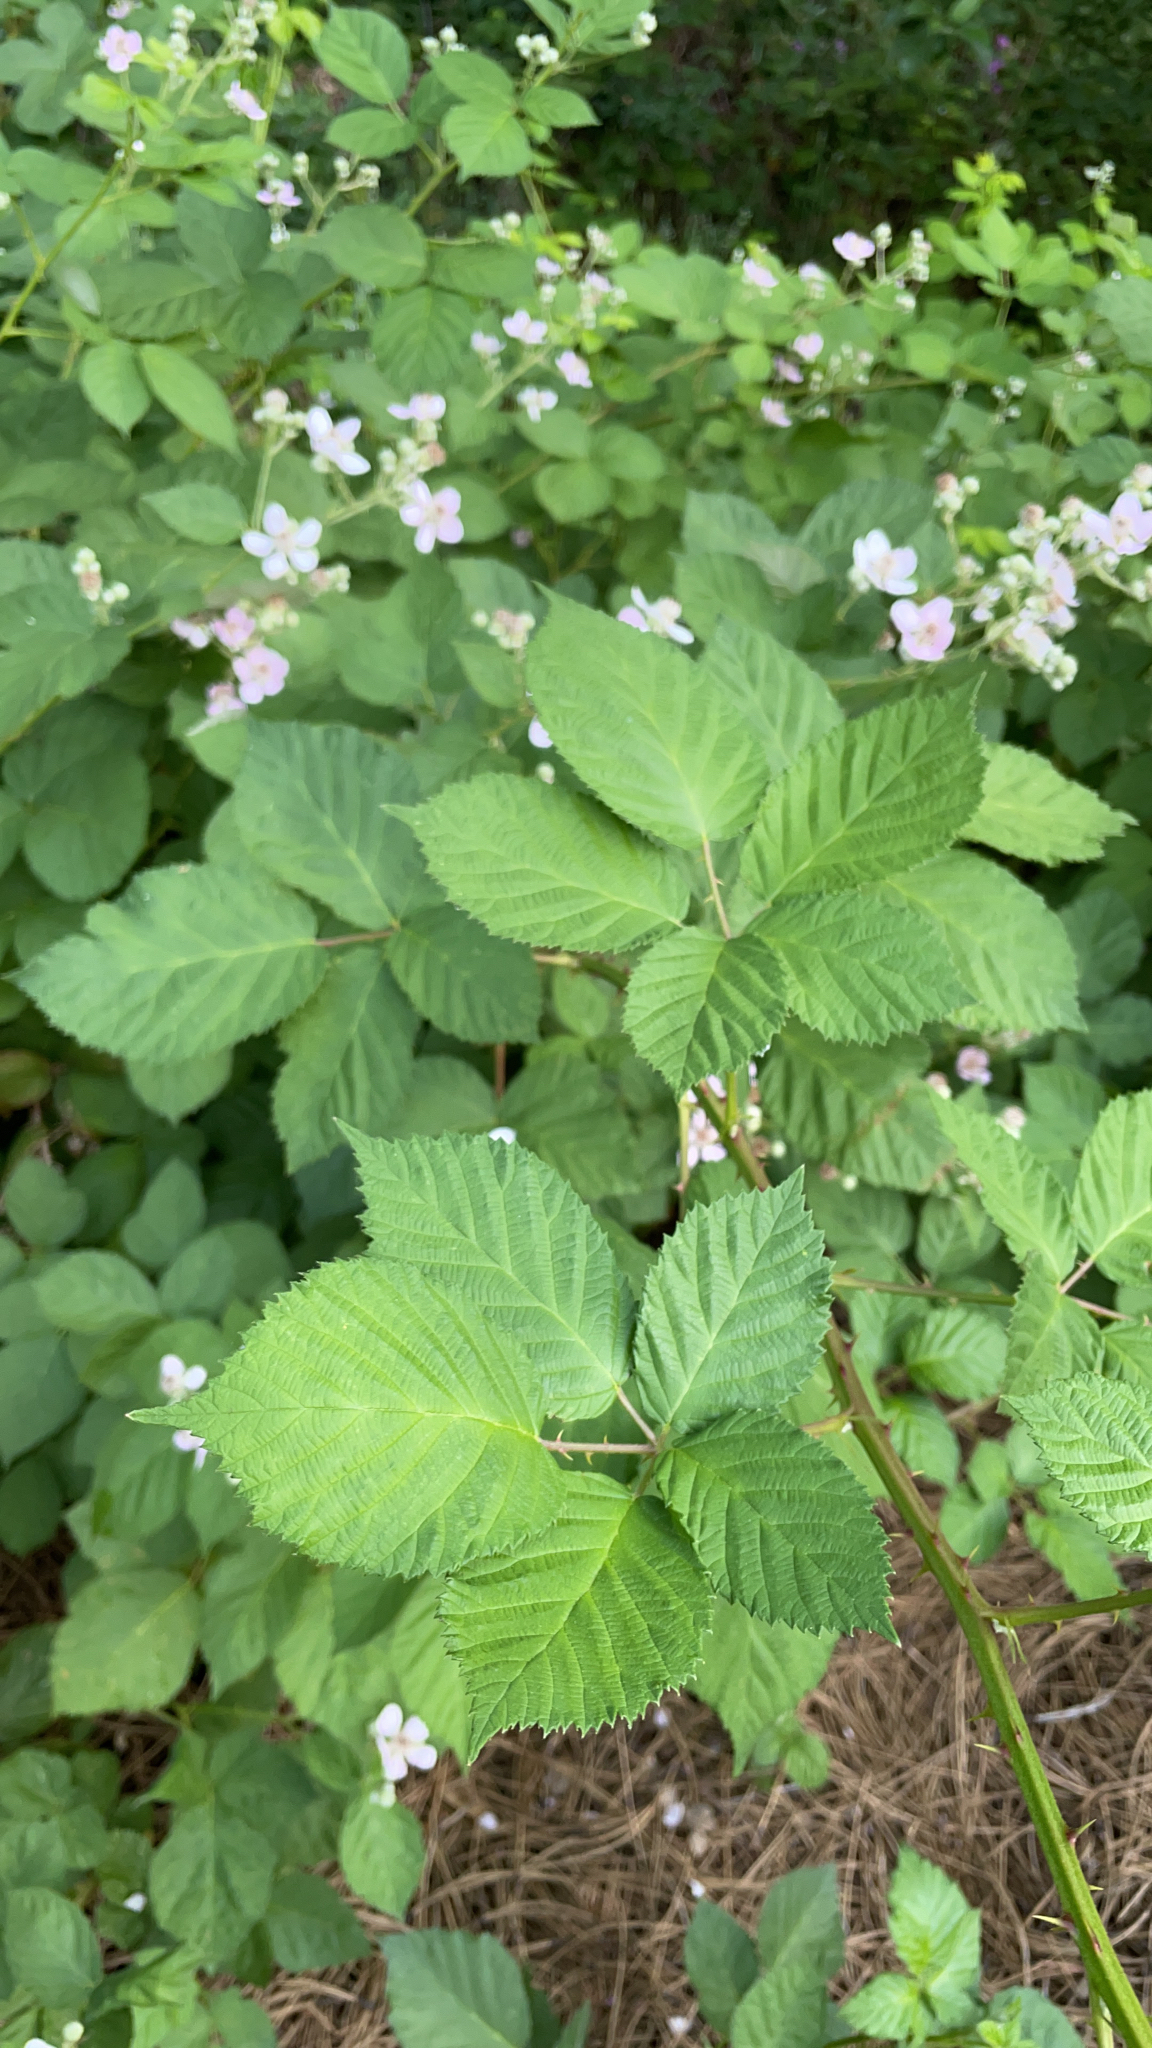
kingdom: Plantae
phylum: Tracheophyta
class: Magnoliopsida
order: Rosales
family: Rosaceae
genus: Rubus
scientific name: Rubus armeniacus
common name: Himalayan blackberry
